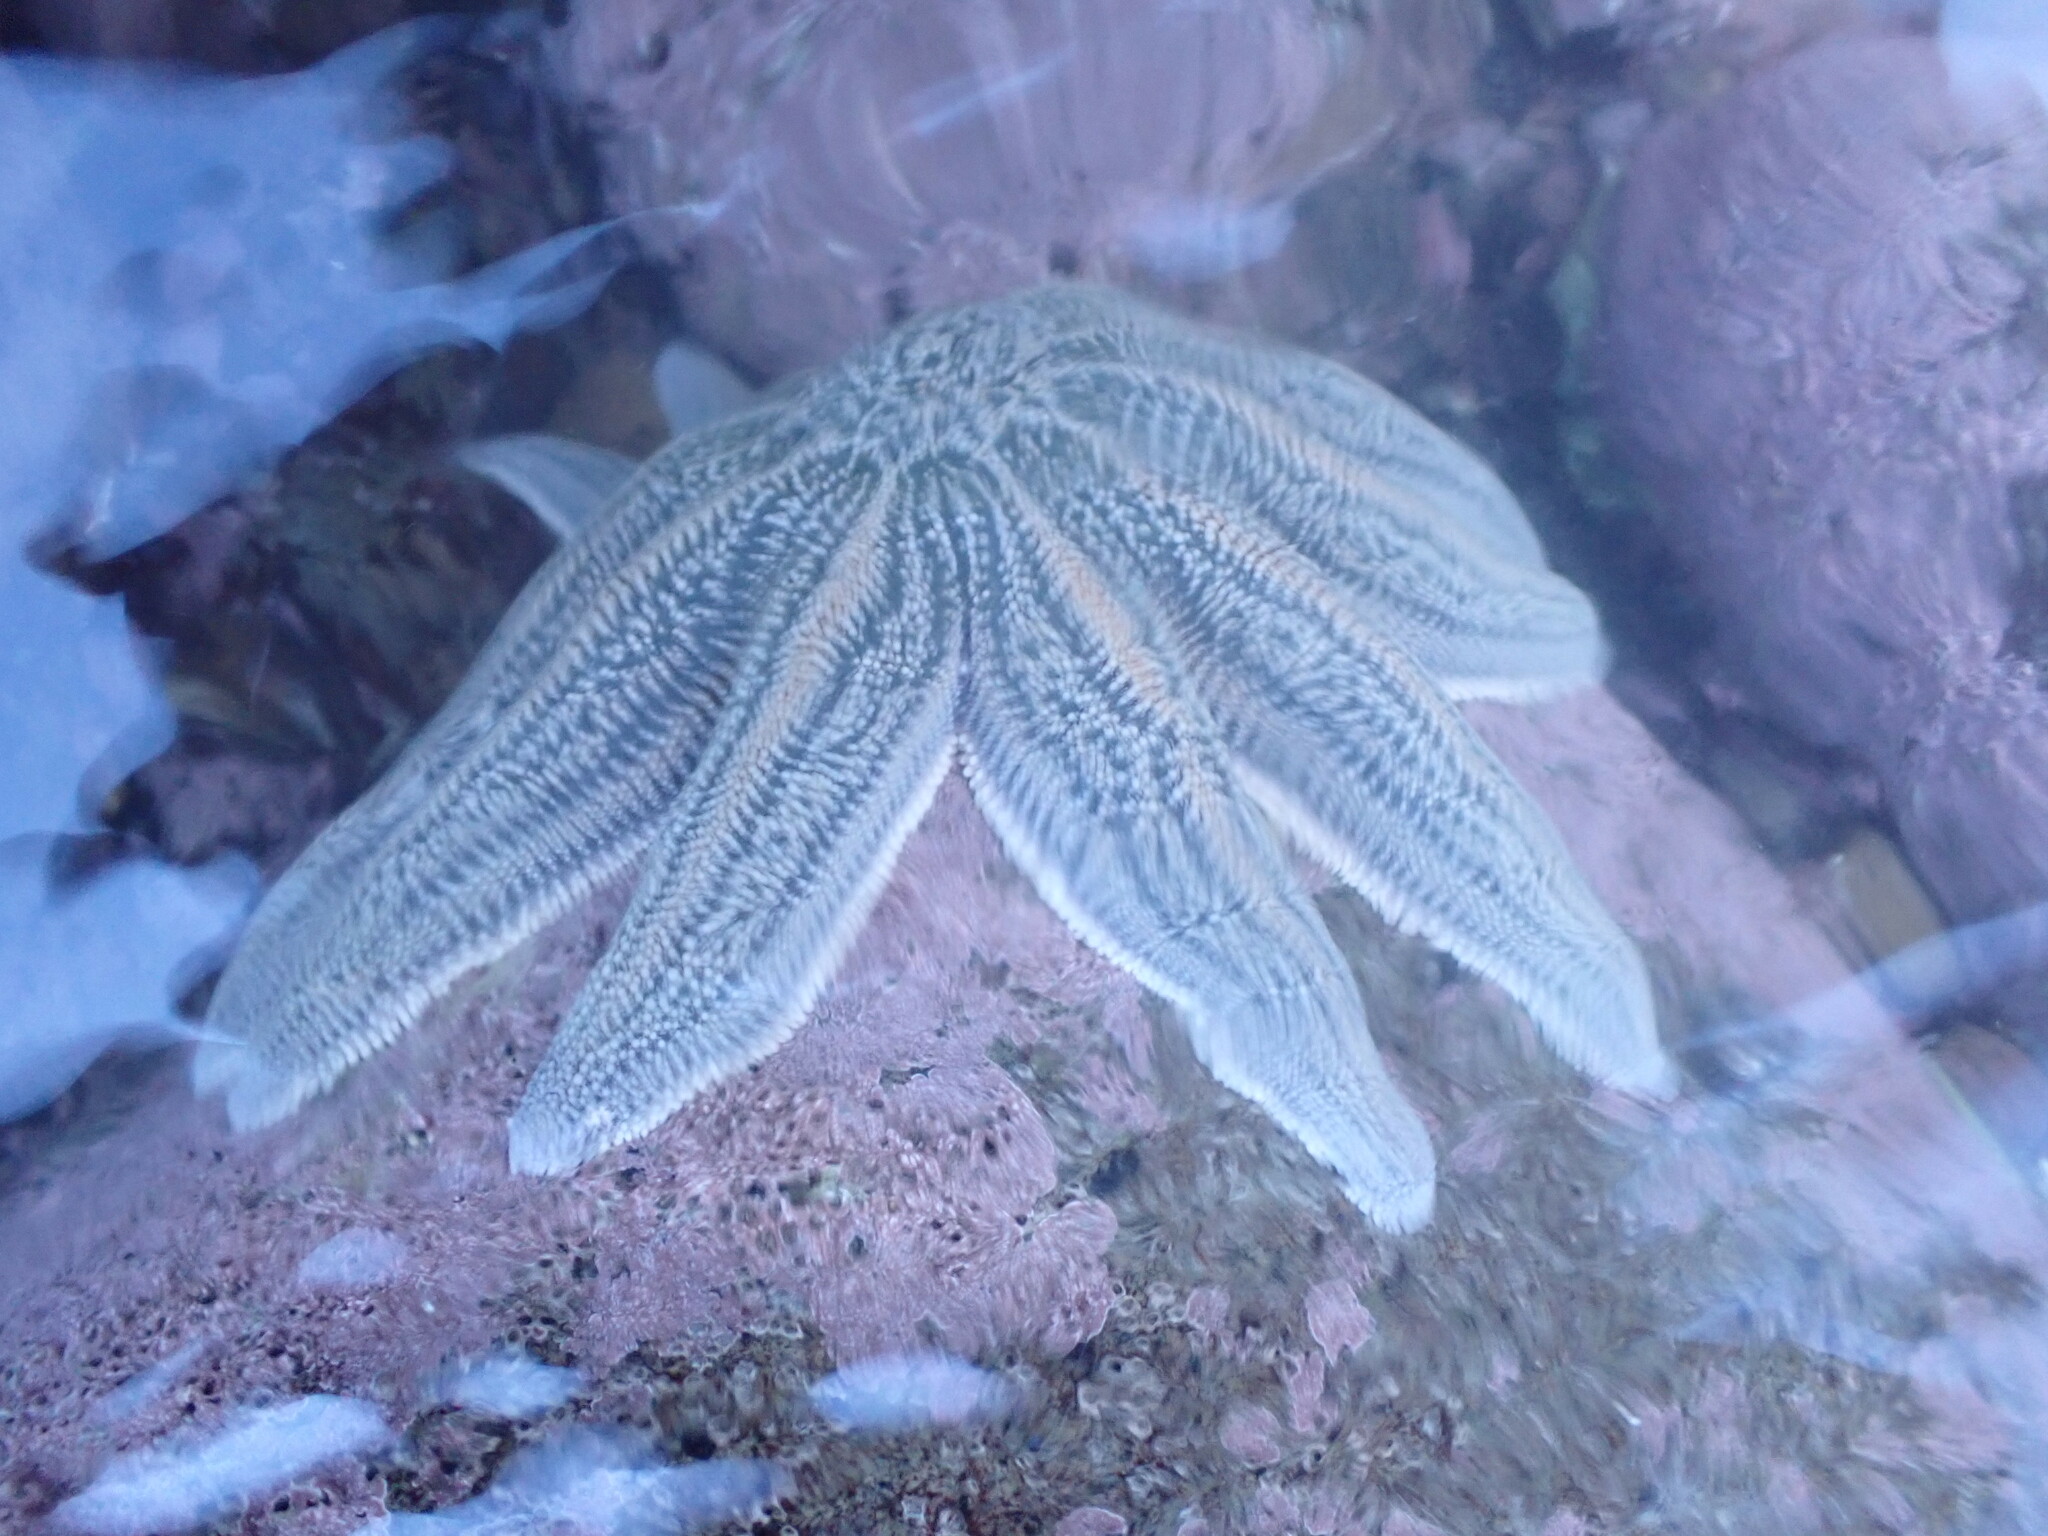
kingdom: Animalia
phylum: Echinodermata
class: Asteroidea
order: Forcipulatida
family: Stichasteridae
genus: Stichaster
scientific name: Stichaster australis
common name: Reef starfish
